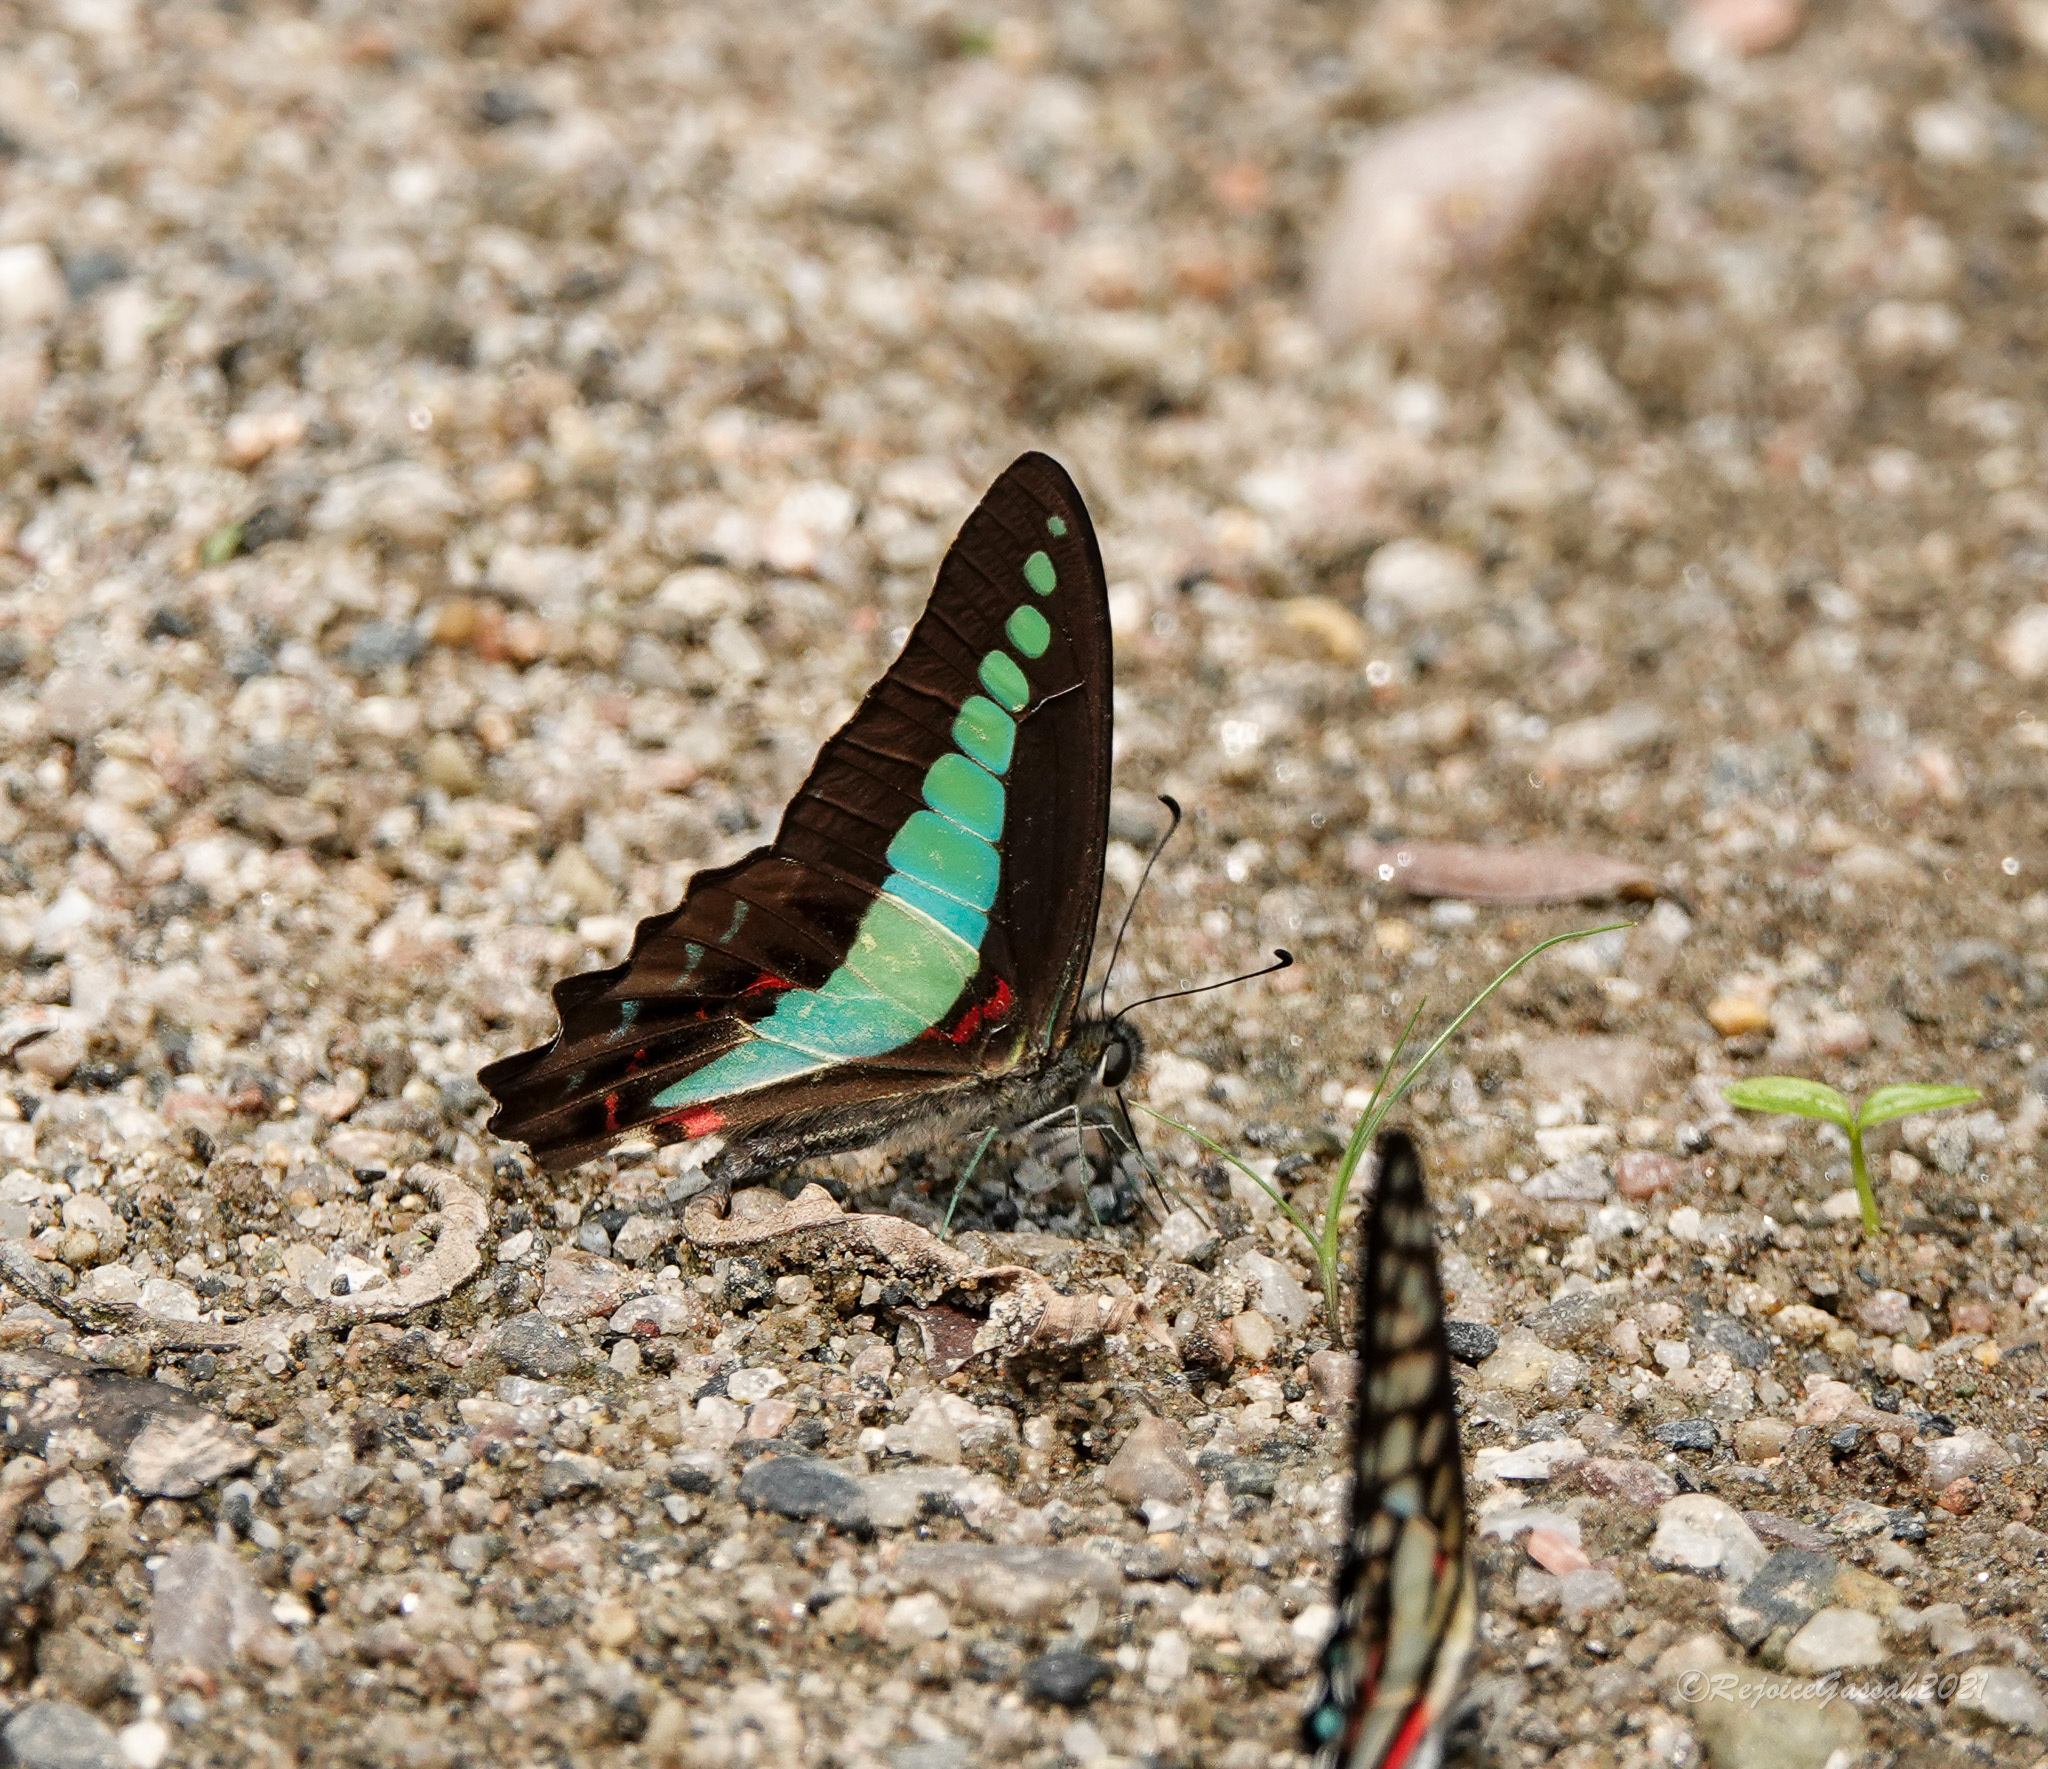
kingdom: Fungi
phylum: Ascomycota
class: Sordariomycetes
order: Microascales
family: Microascaceae
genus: Graphium
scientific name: Graphium sarpedon
